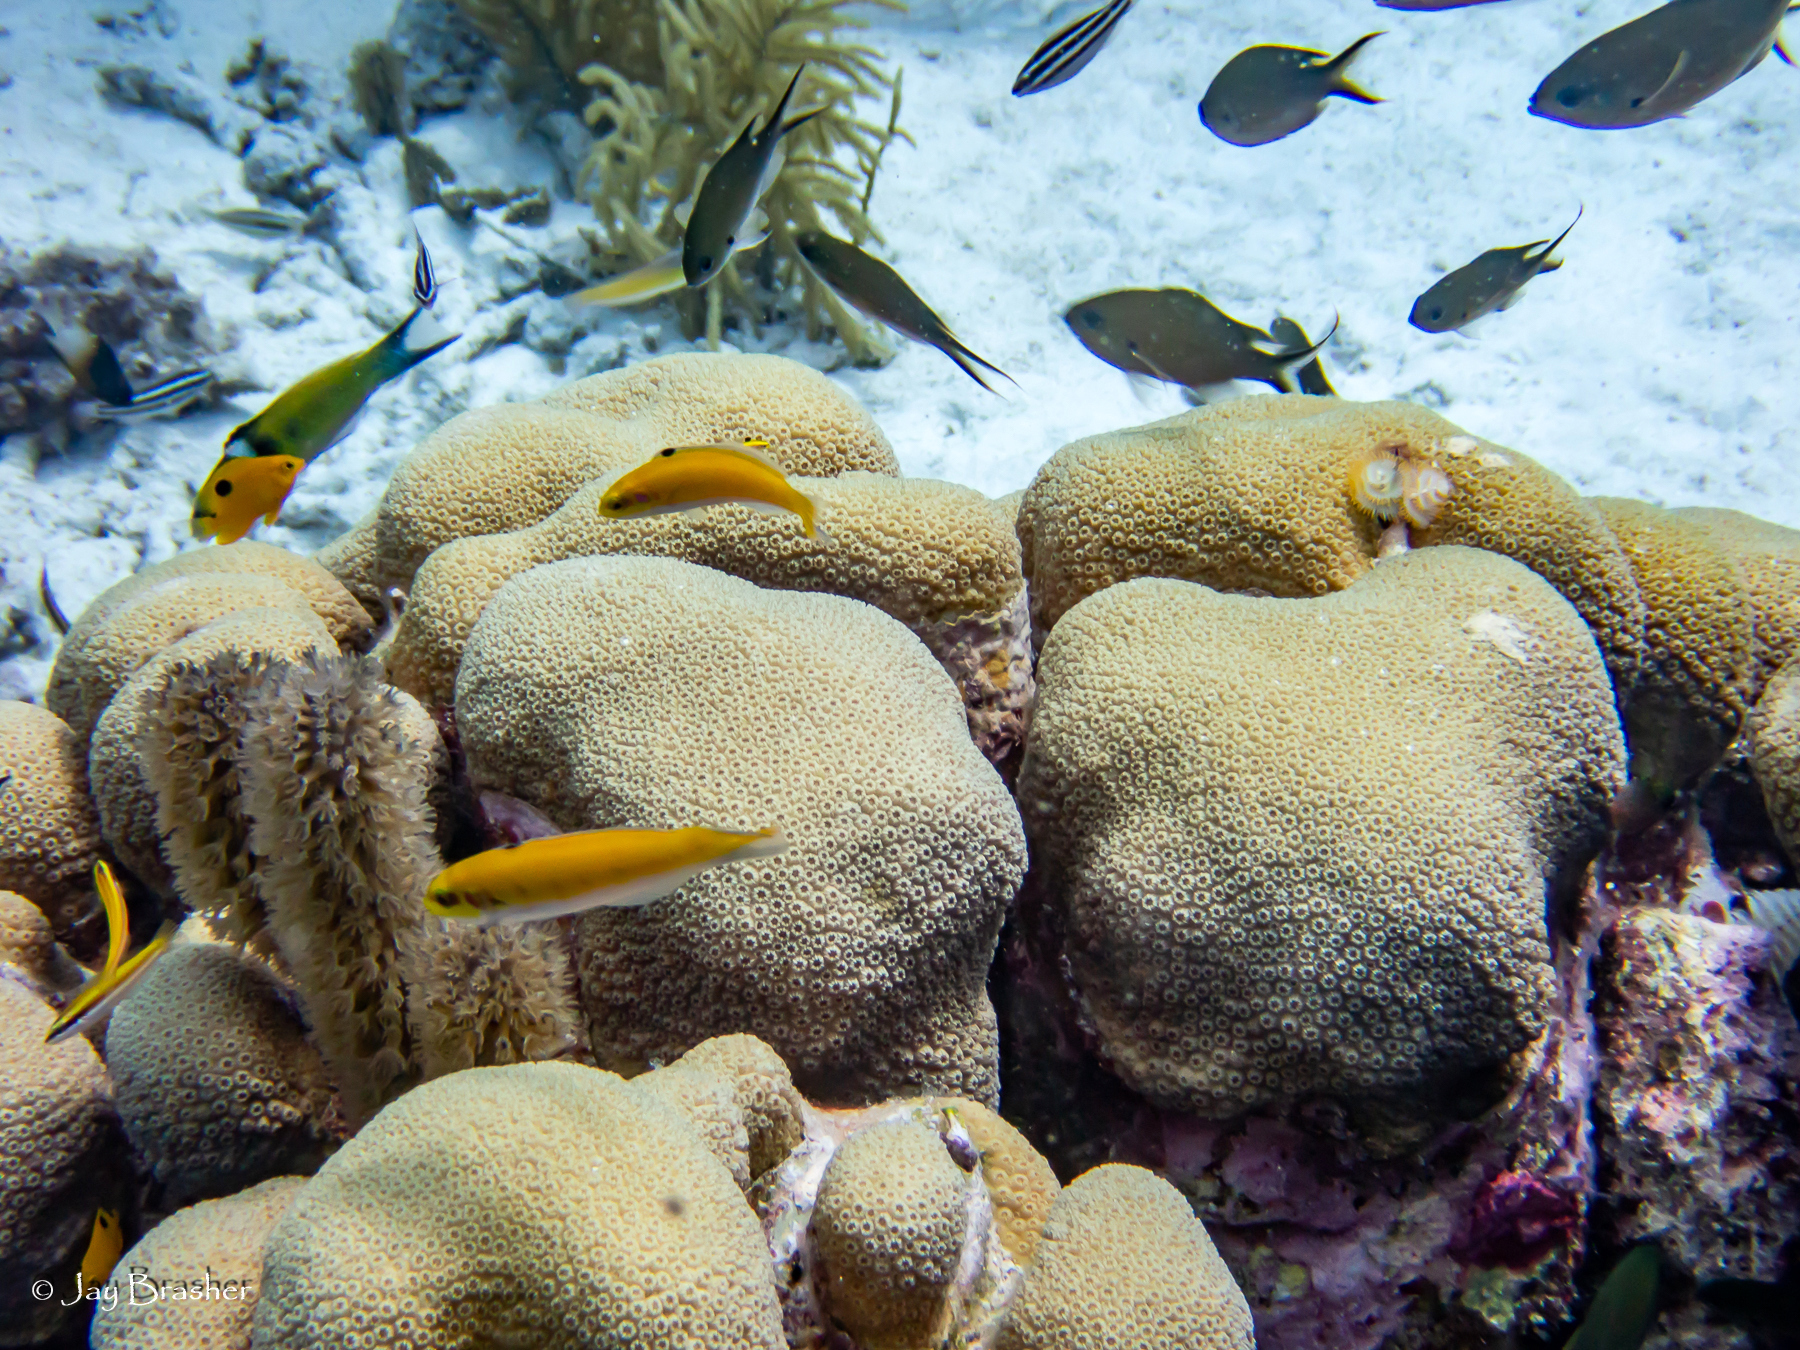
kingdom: Animalia
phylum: Chordata
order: Perciformes
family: Pomacentridae
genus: Chromis
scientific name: Chromis multilineata
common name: Brown chromis
